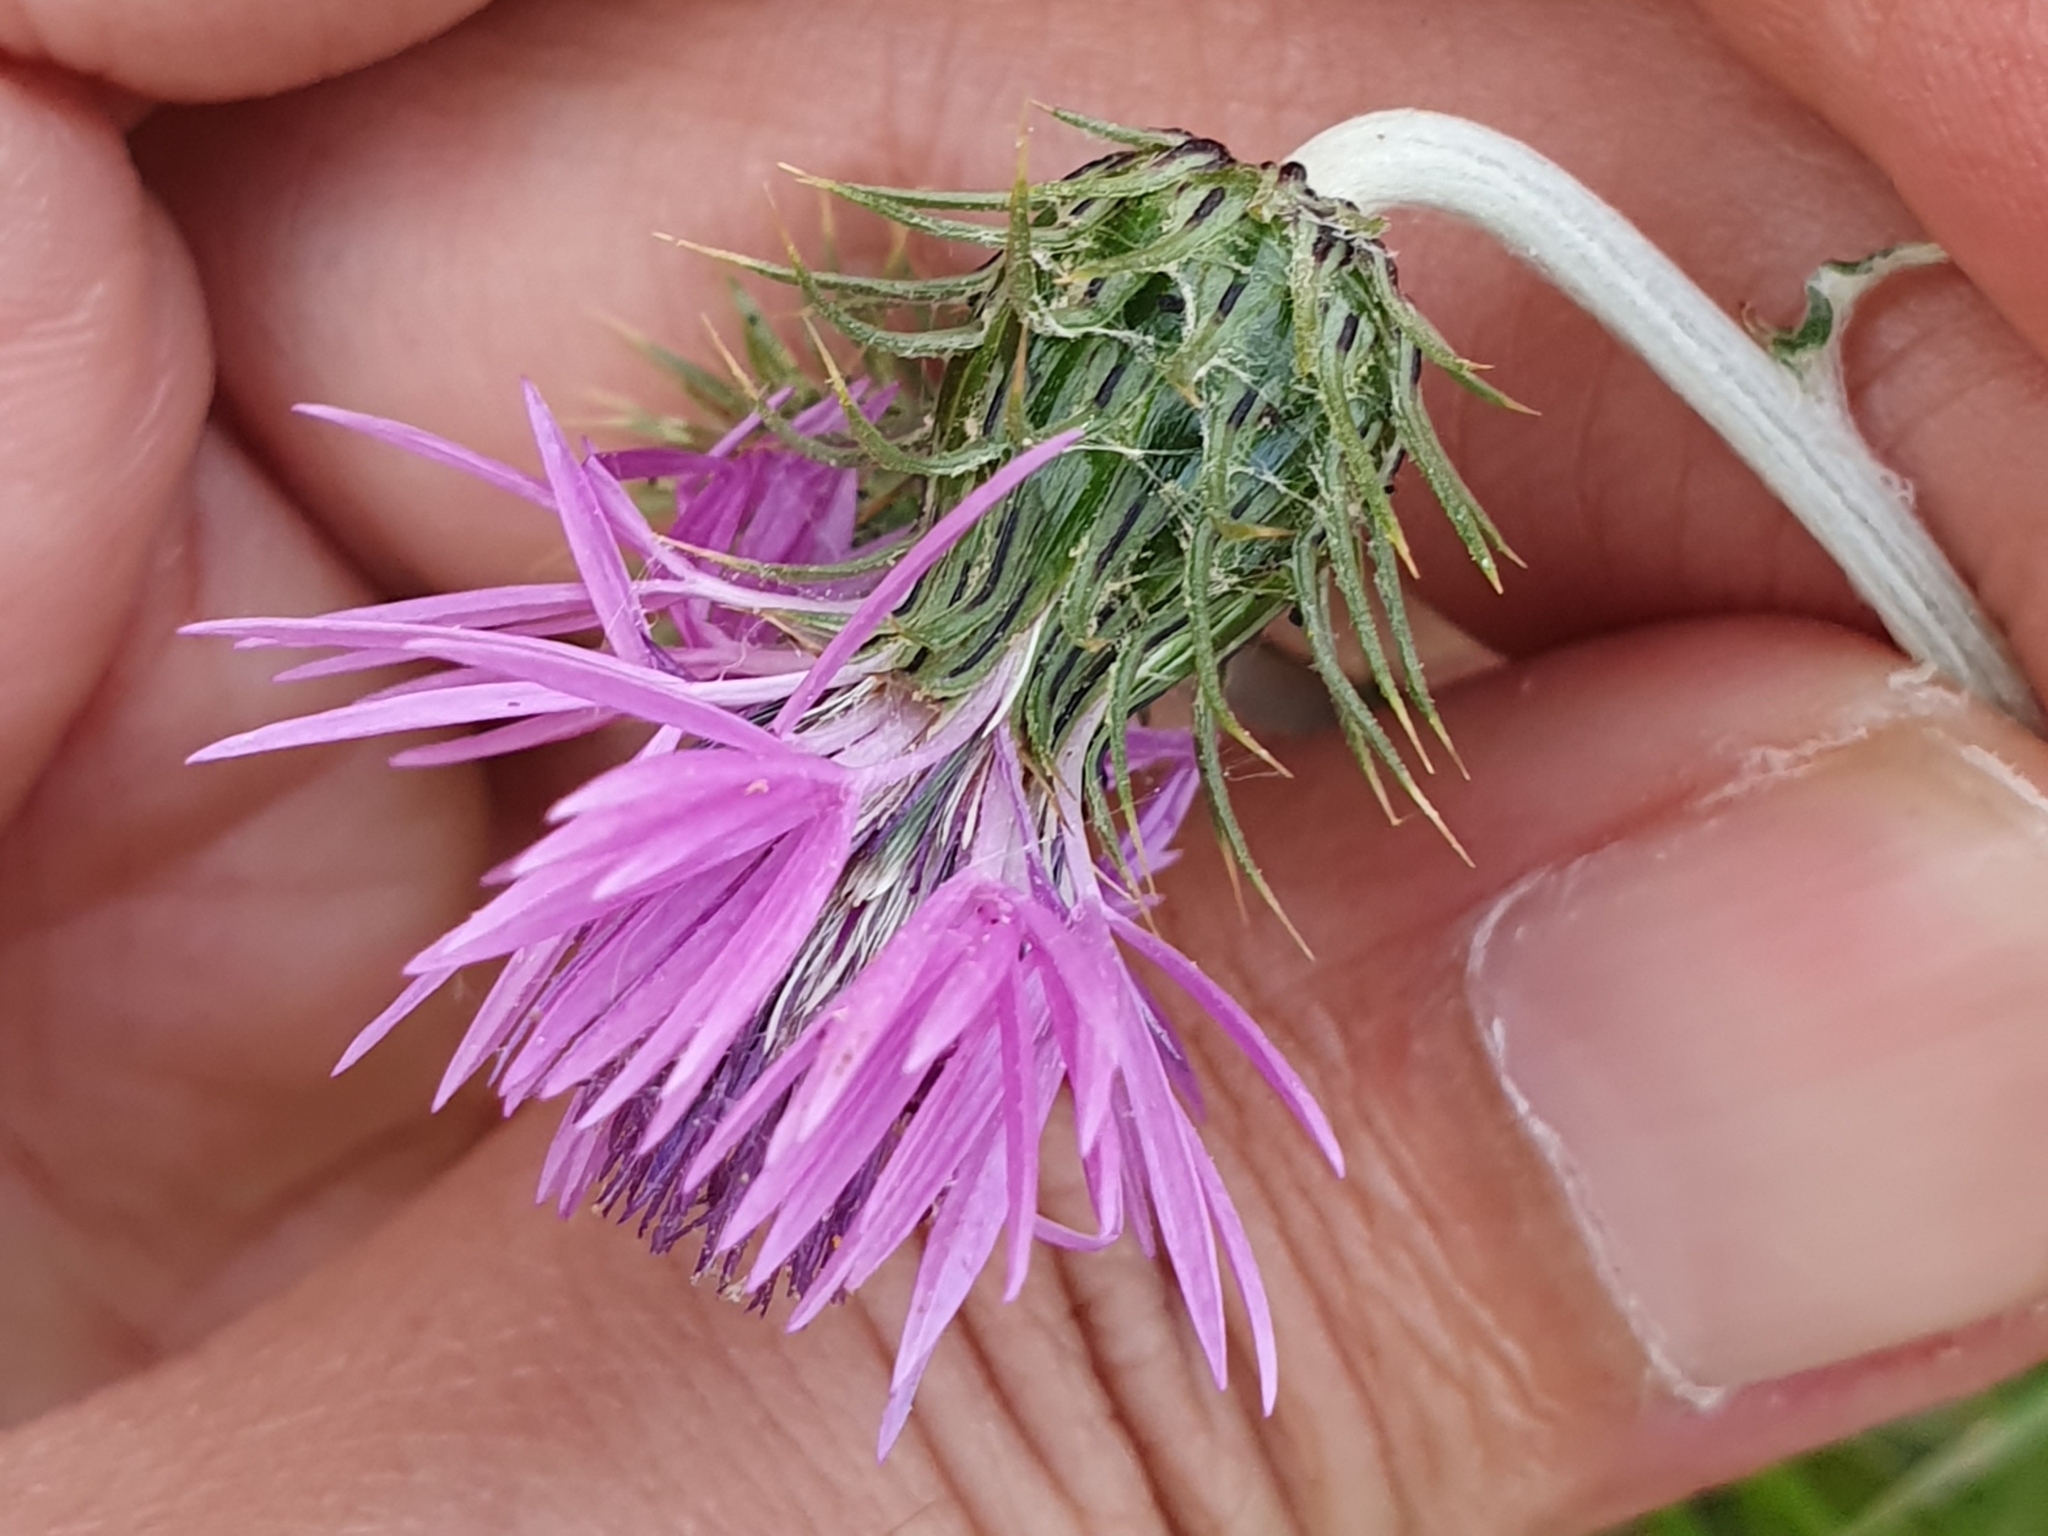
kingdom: Plantae
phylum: Tracheophyta
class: Magnoliopsida
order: Asterales
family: Asteraceae
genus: Galactites
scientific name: Galactites tomentosa
